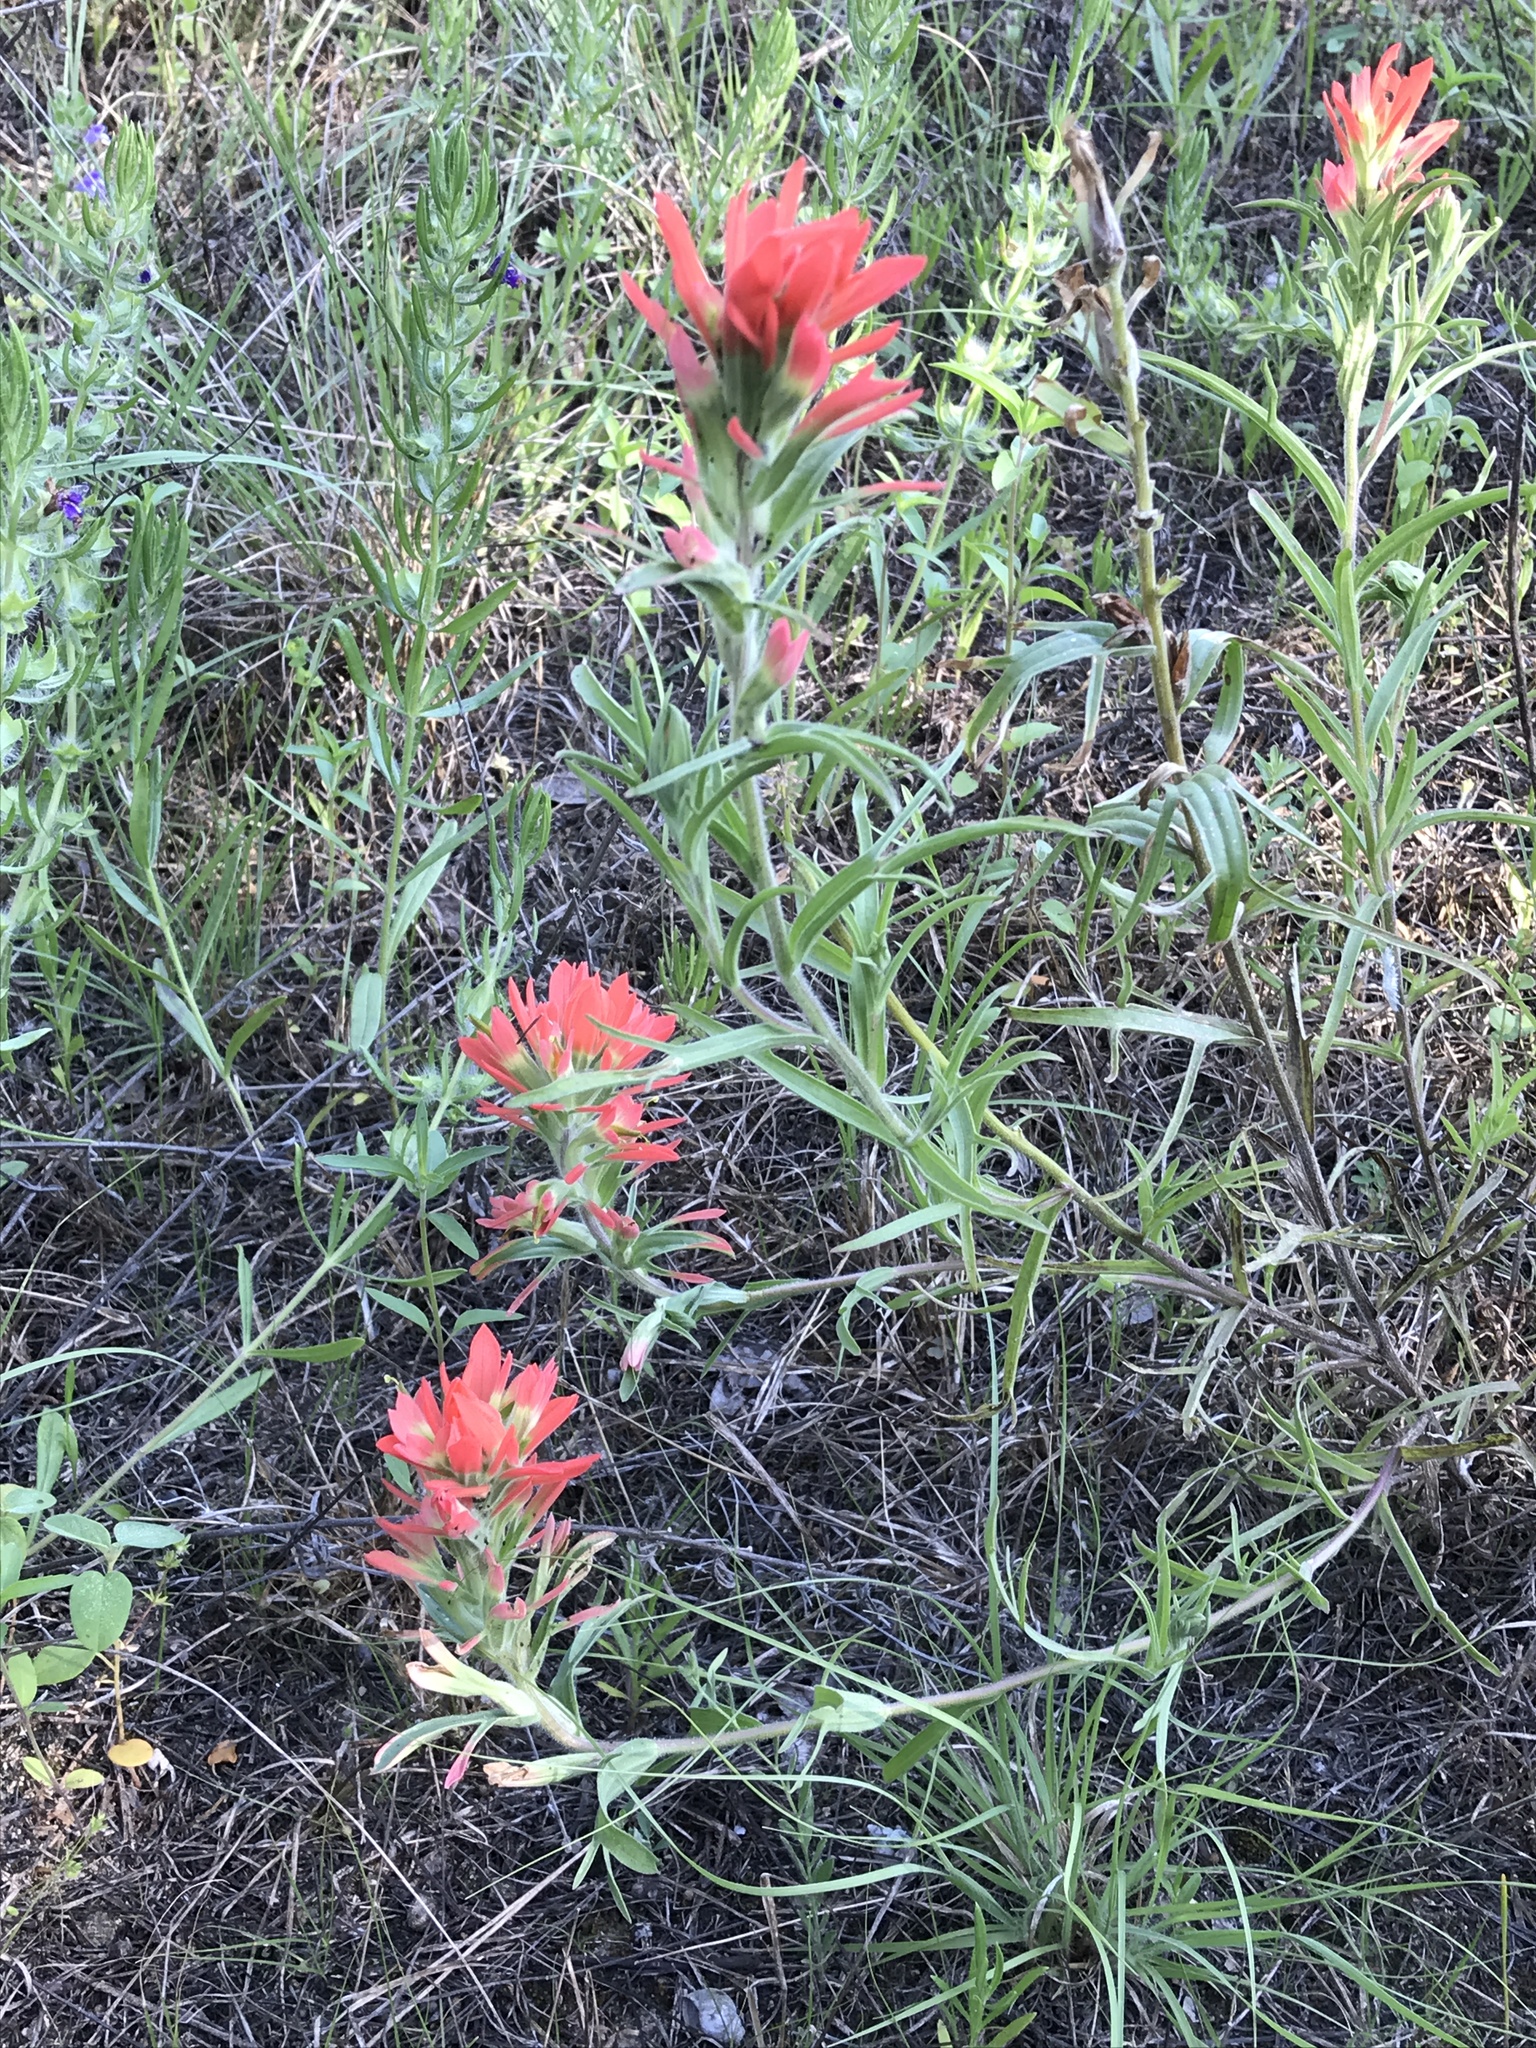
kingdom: Plantae
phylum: Tracheophyta
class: Magnoliopsida
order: Lamiales
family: Orobanchaceae
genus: Castilleja
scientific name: Castilleja lindheimeri
